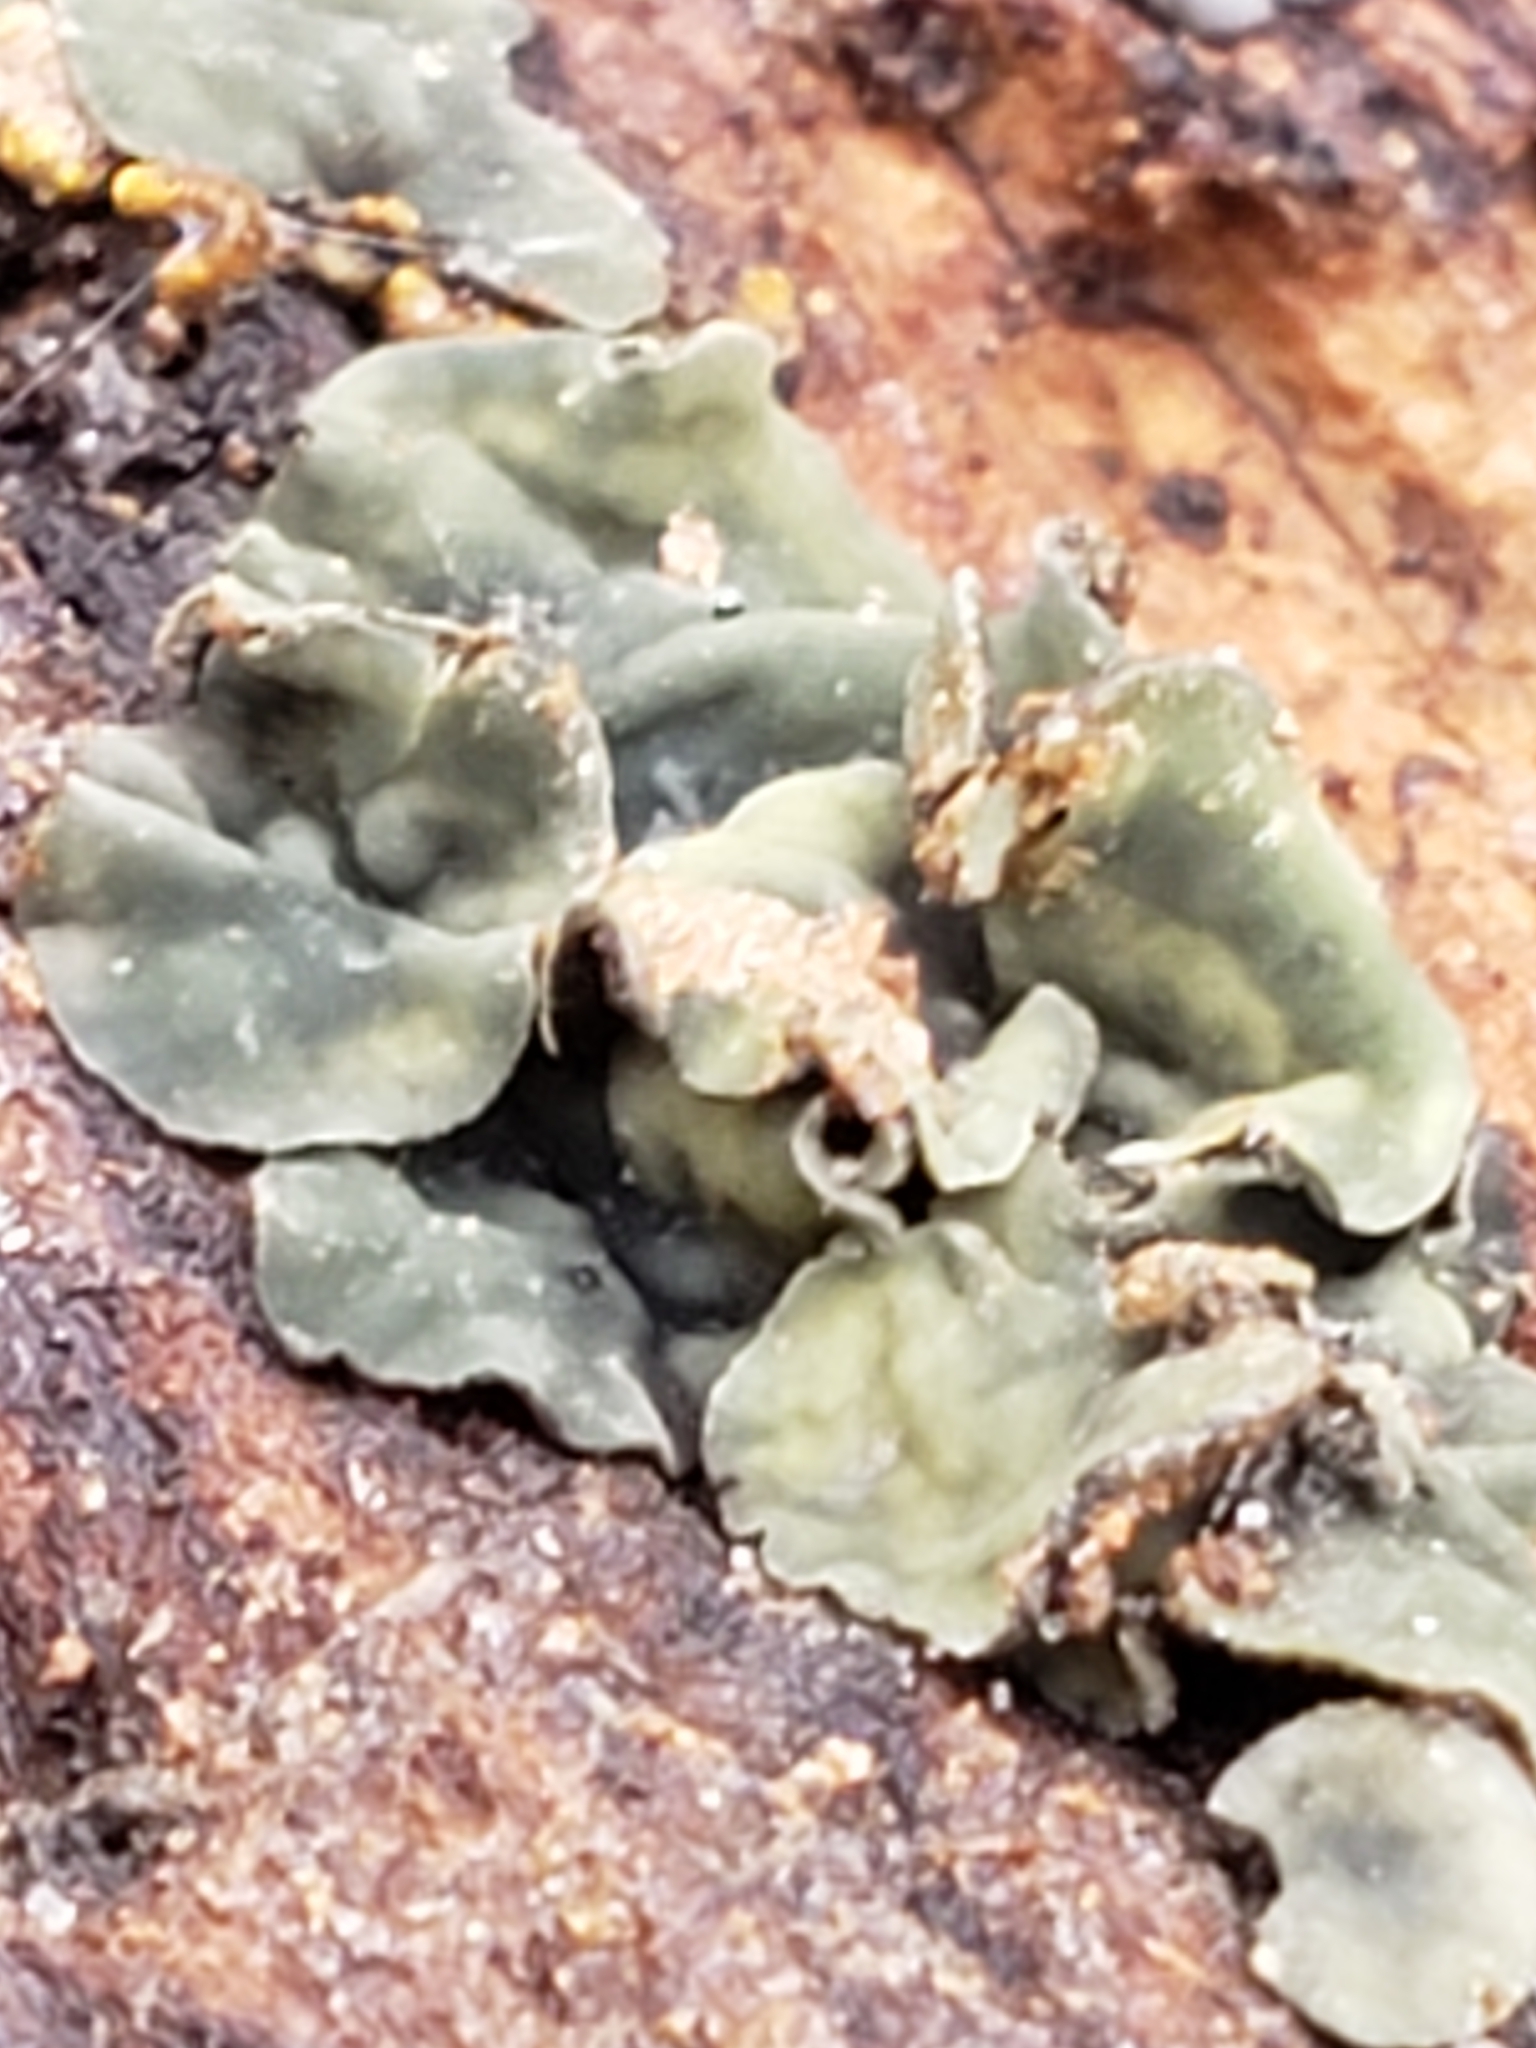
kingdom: Fungi
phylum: Ascomycota
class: Leotiomycetes
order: Helotiales
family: Chlorospleniaceae
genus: Chlorosplenium
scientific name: Chlorosplenium chlora
